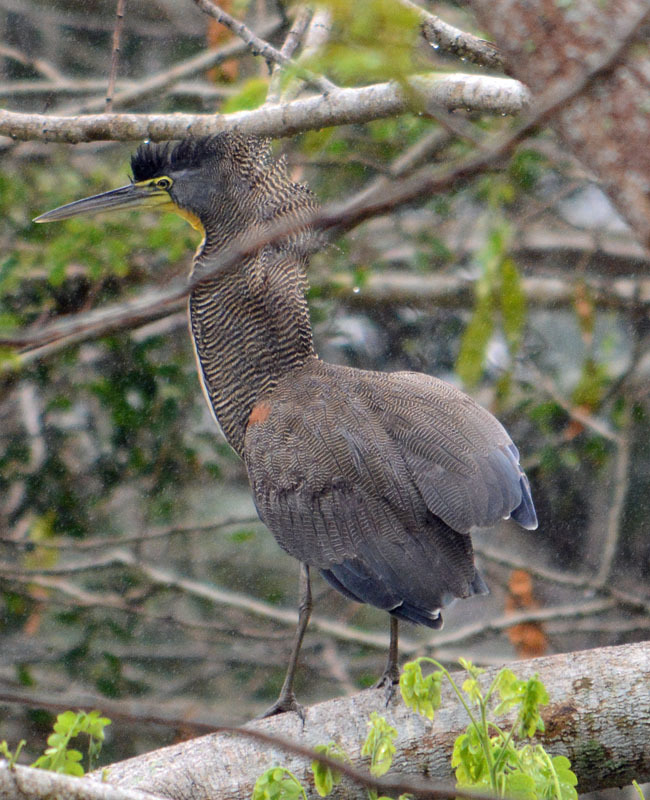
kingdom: Animalia
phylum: Chordata
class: Aves
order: Pelecaniformes
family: Ardeidae
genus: Tigrisoma
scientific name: Tigrisoma mexicanum
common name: Bare-throated tiger-heron
